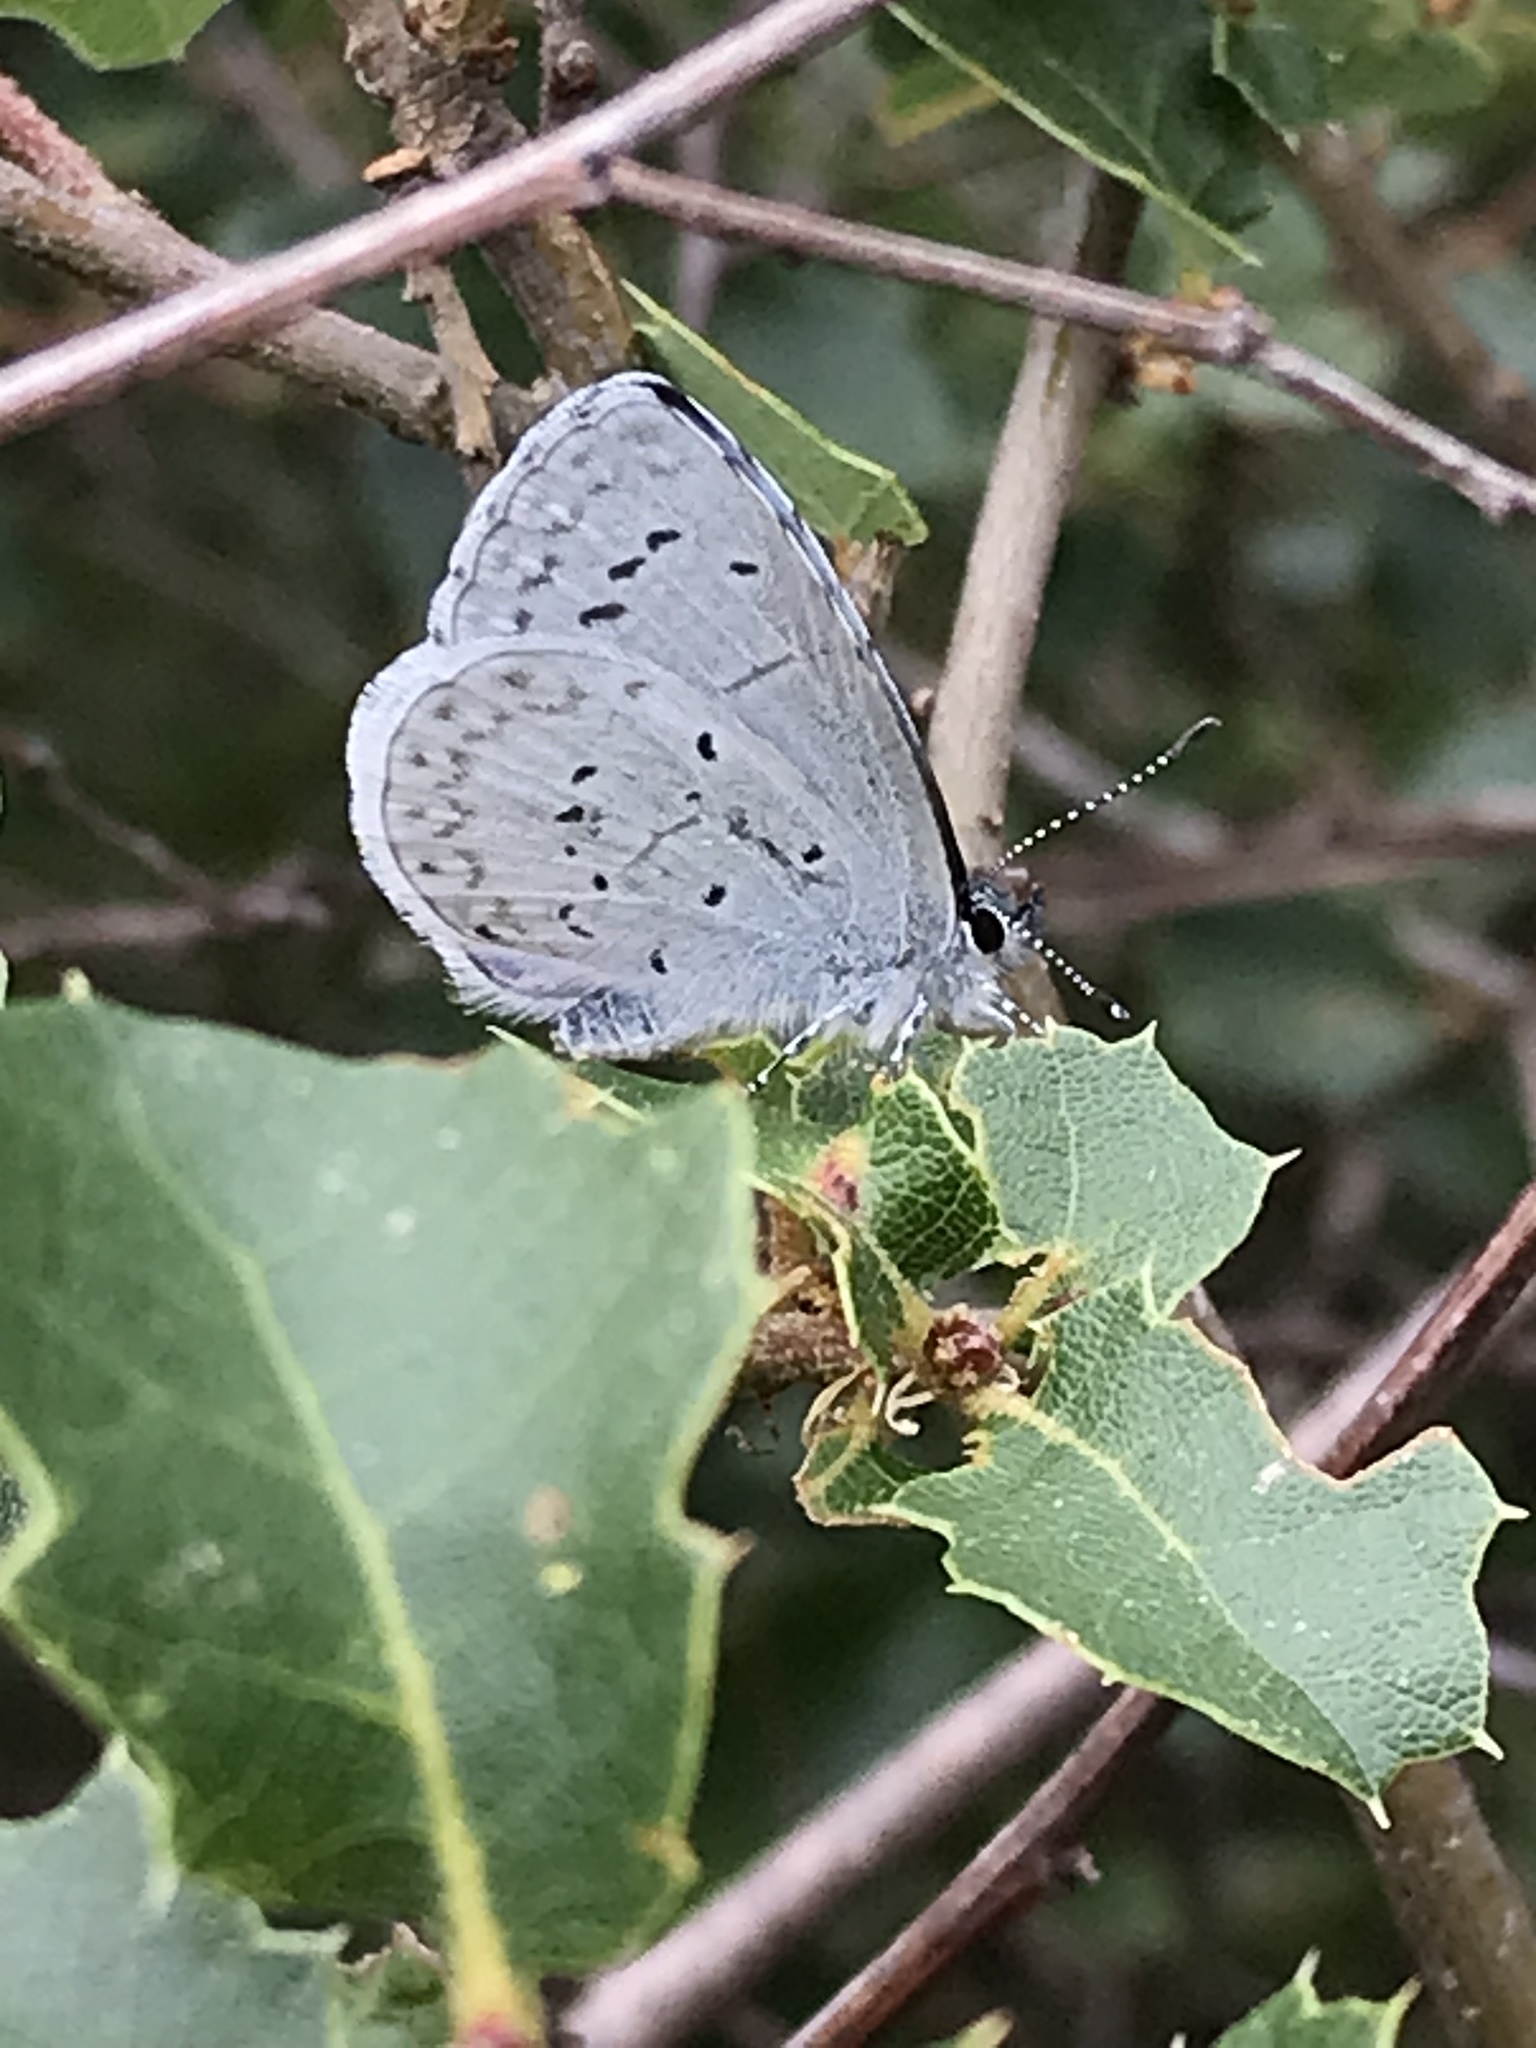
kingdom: Animalia
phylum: Arthropoda
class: Insecta
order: Lepidoptera
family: Lycaenidae
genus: Celastrina
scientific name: Celastrina ladon
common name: Spring azure
